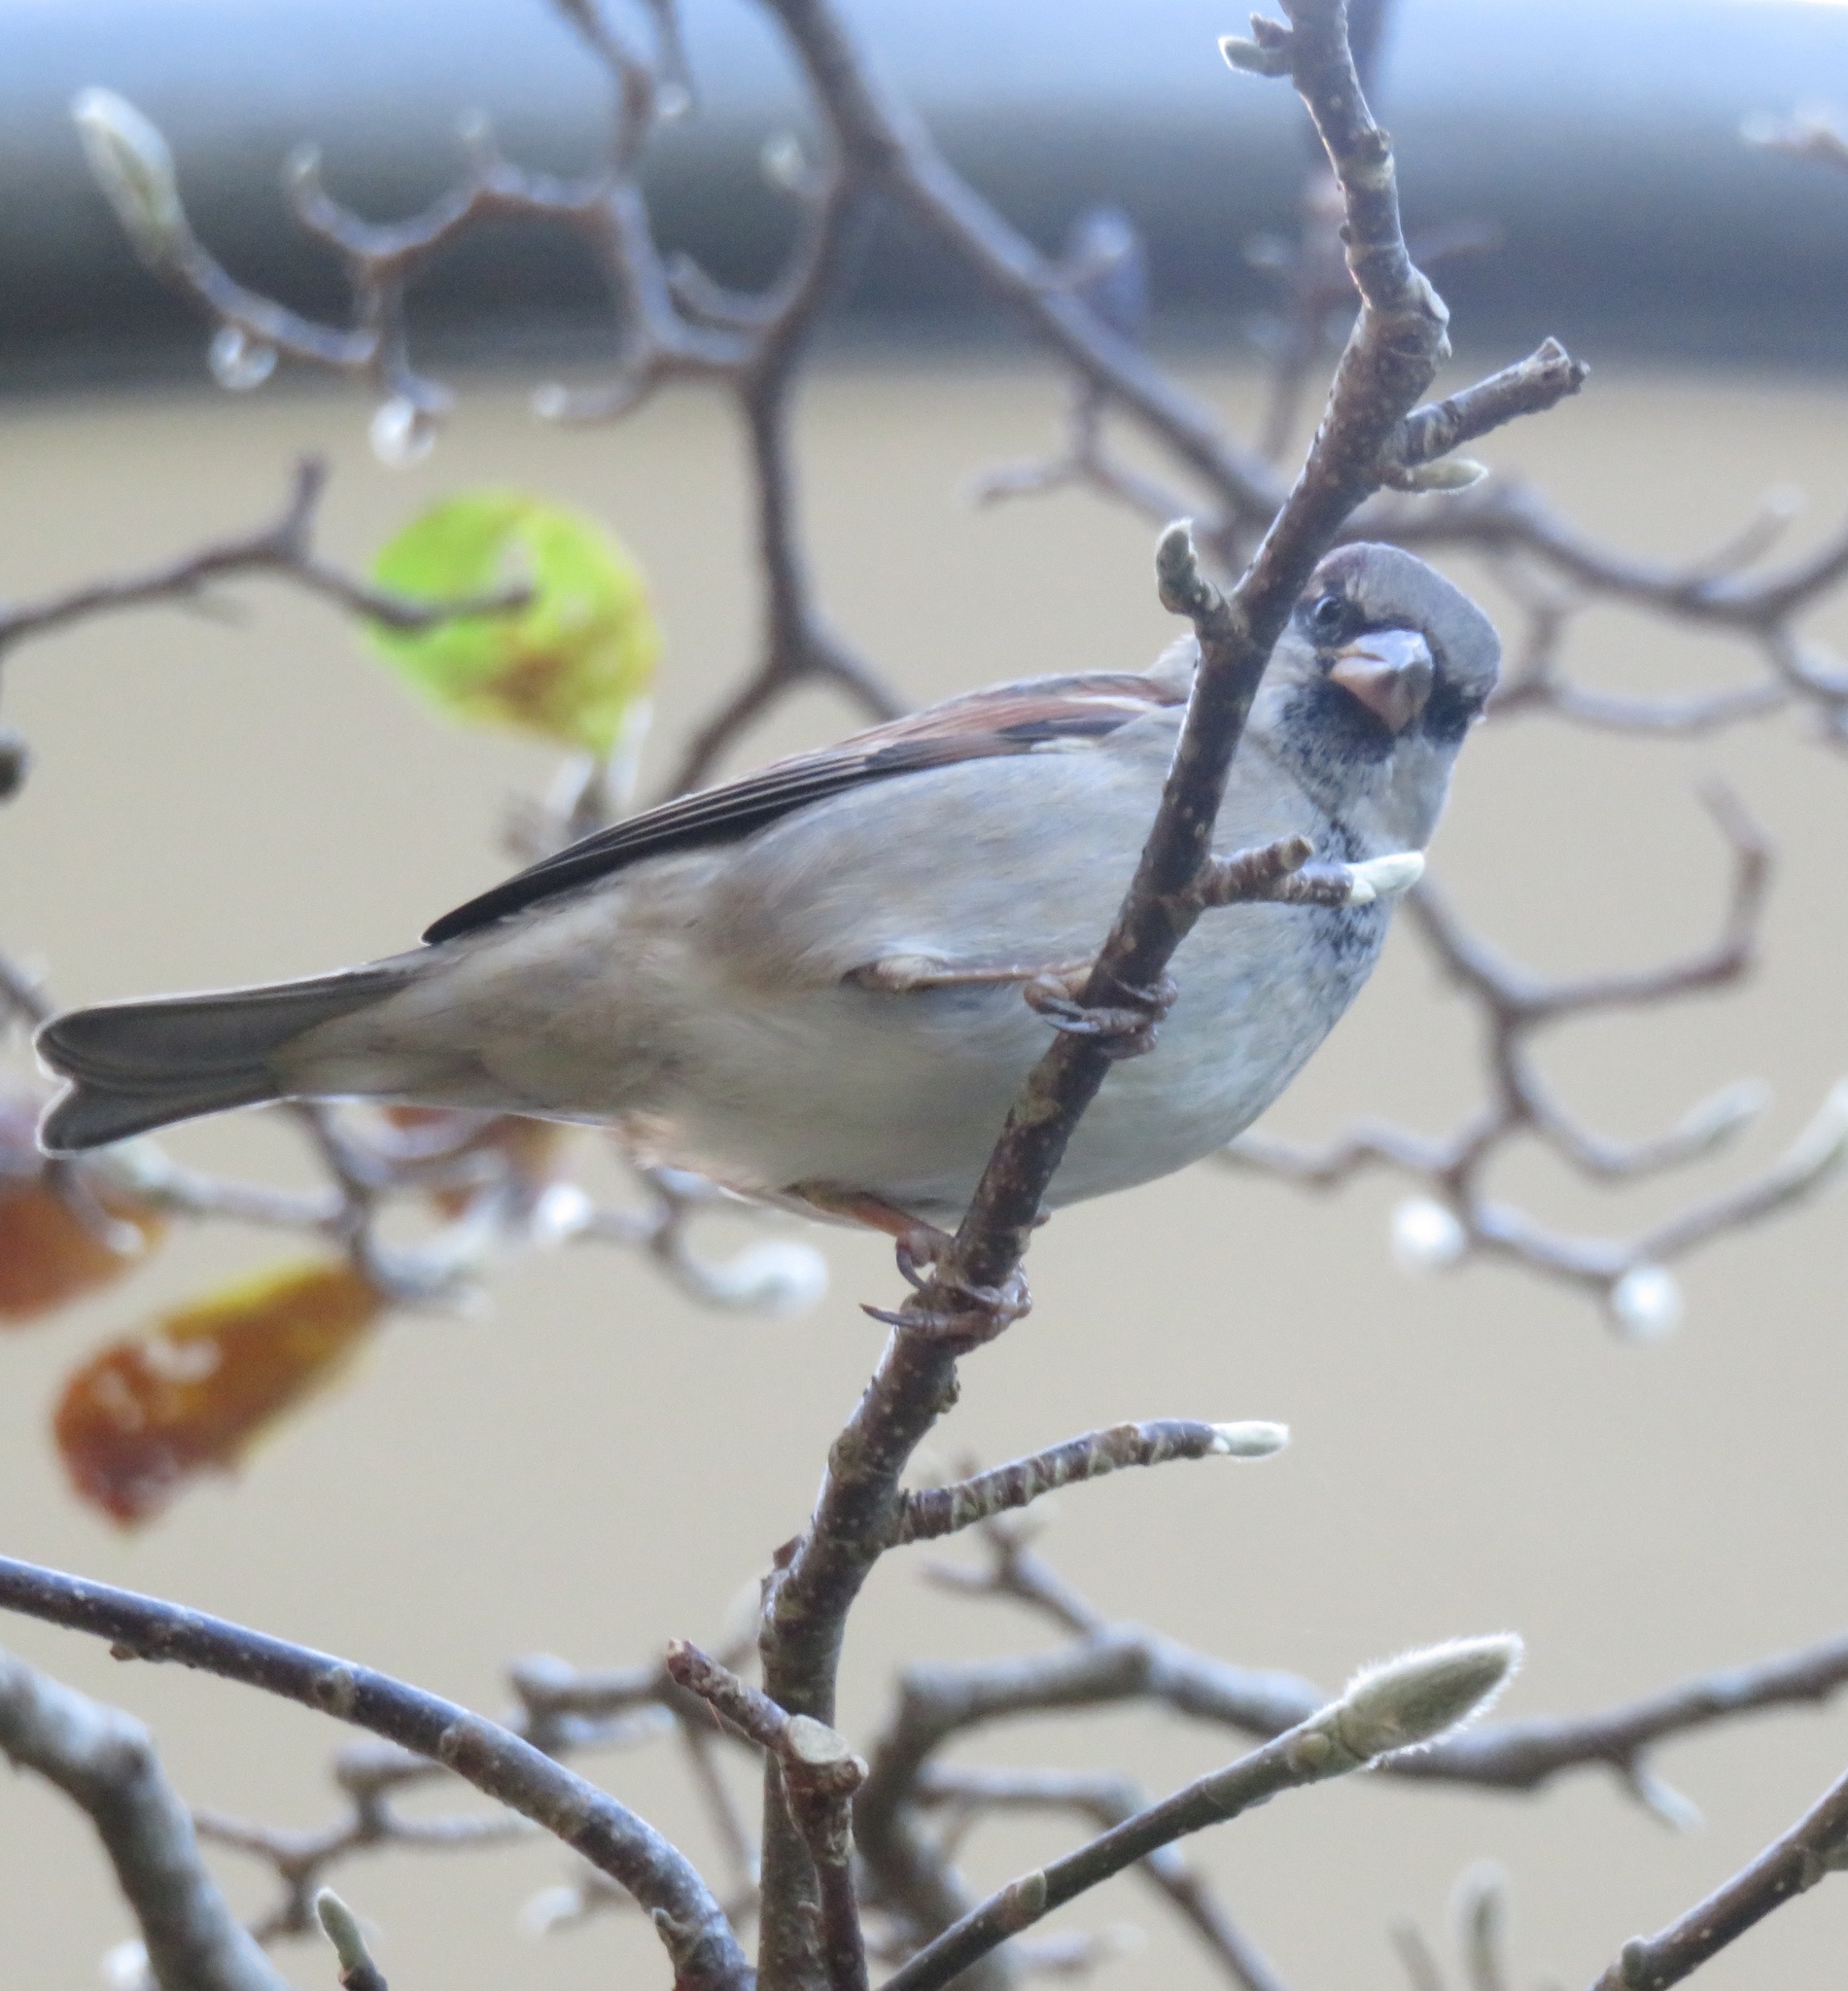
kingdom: Animalia
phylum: Chordata
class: Aves
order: Passeriformes
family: Passeridae
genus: Passer
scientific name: Passer domesticus
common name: House sparrow
